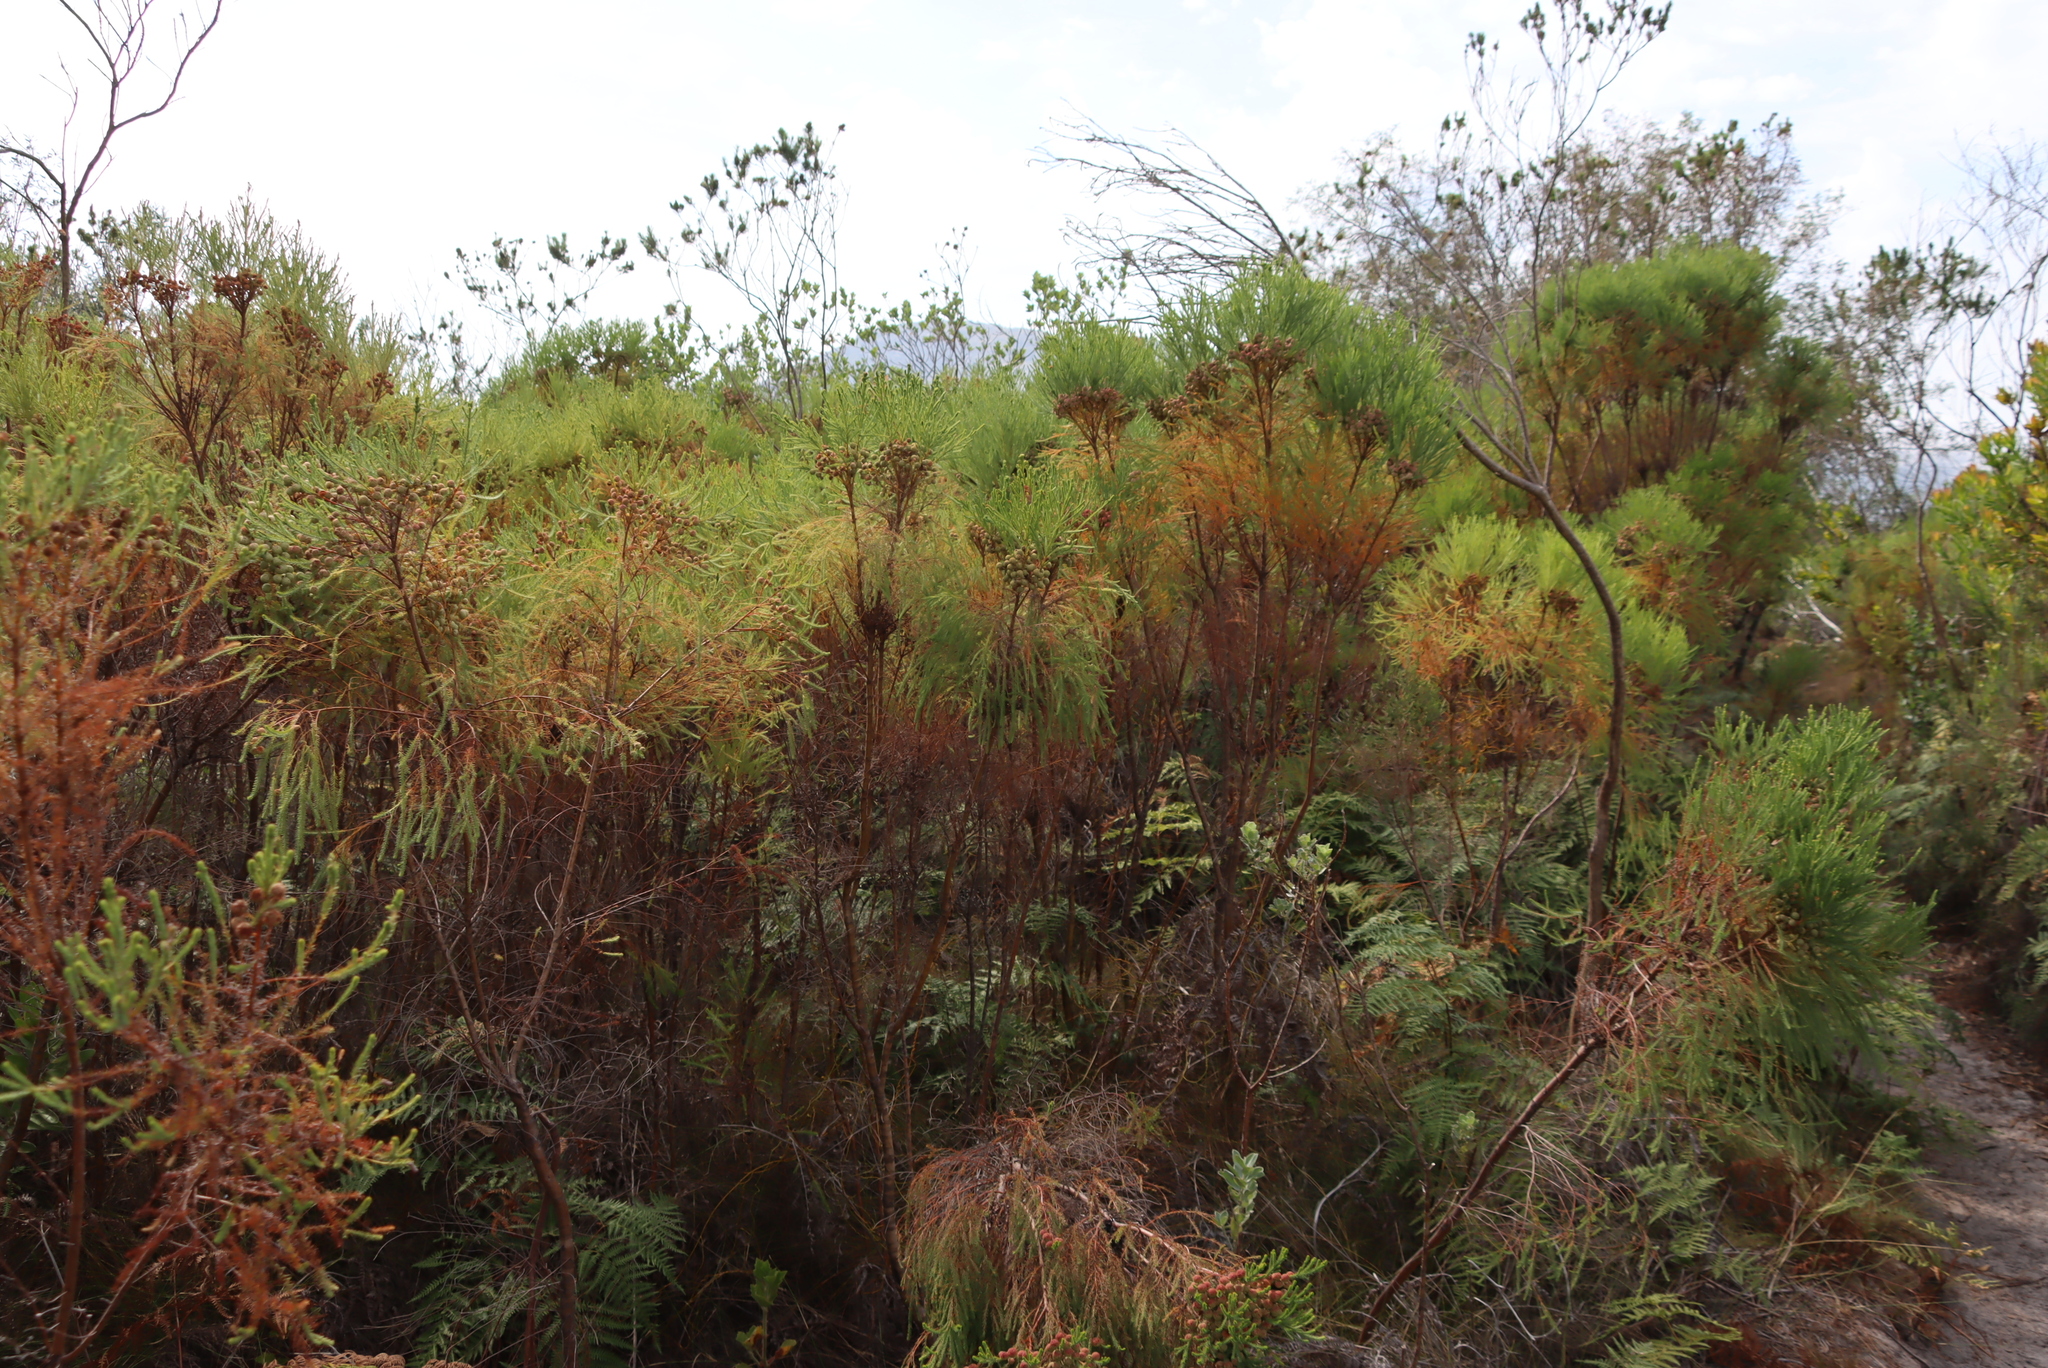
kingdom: Plantae
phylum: Tracheophyta
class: Magnoliopsida
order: Bruniales
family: Bruniaceae
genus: Berzelia
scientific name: Berzelia lanuginosa
